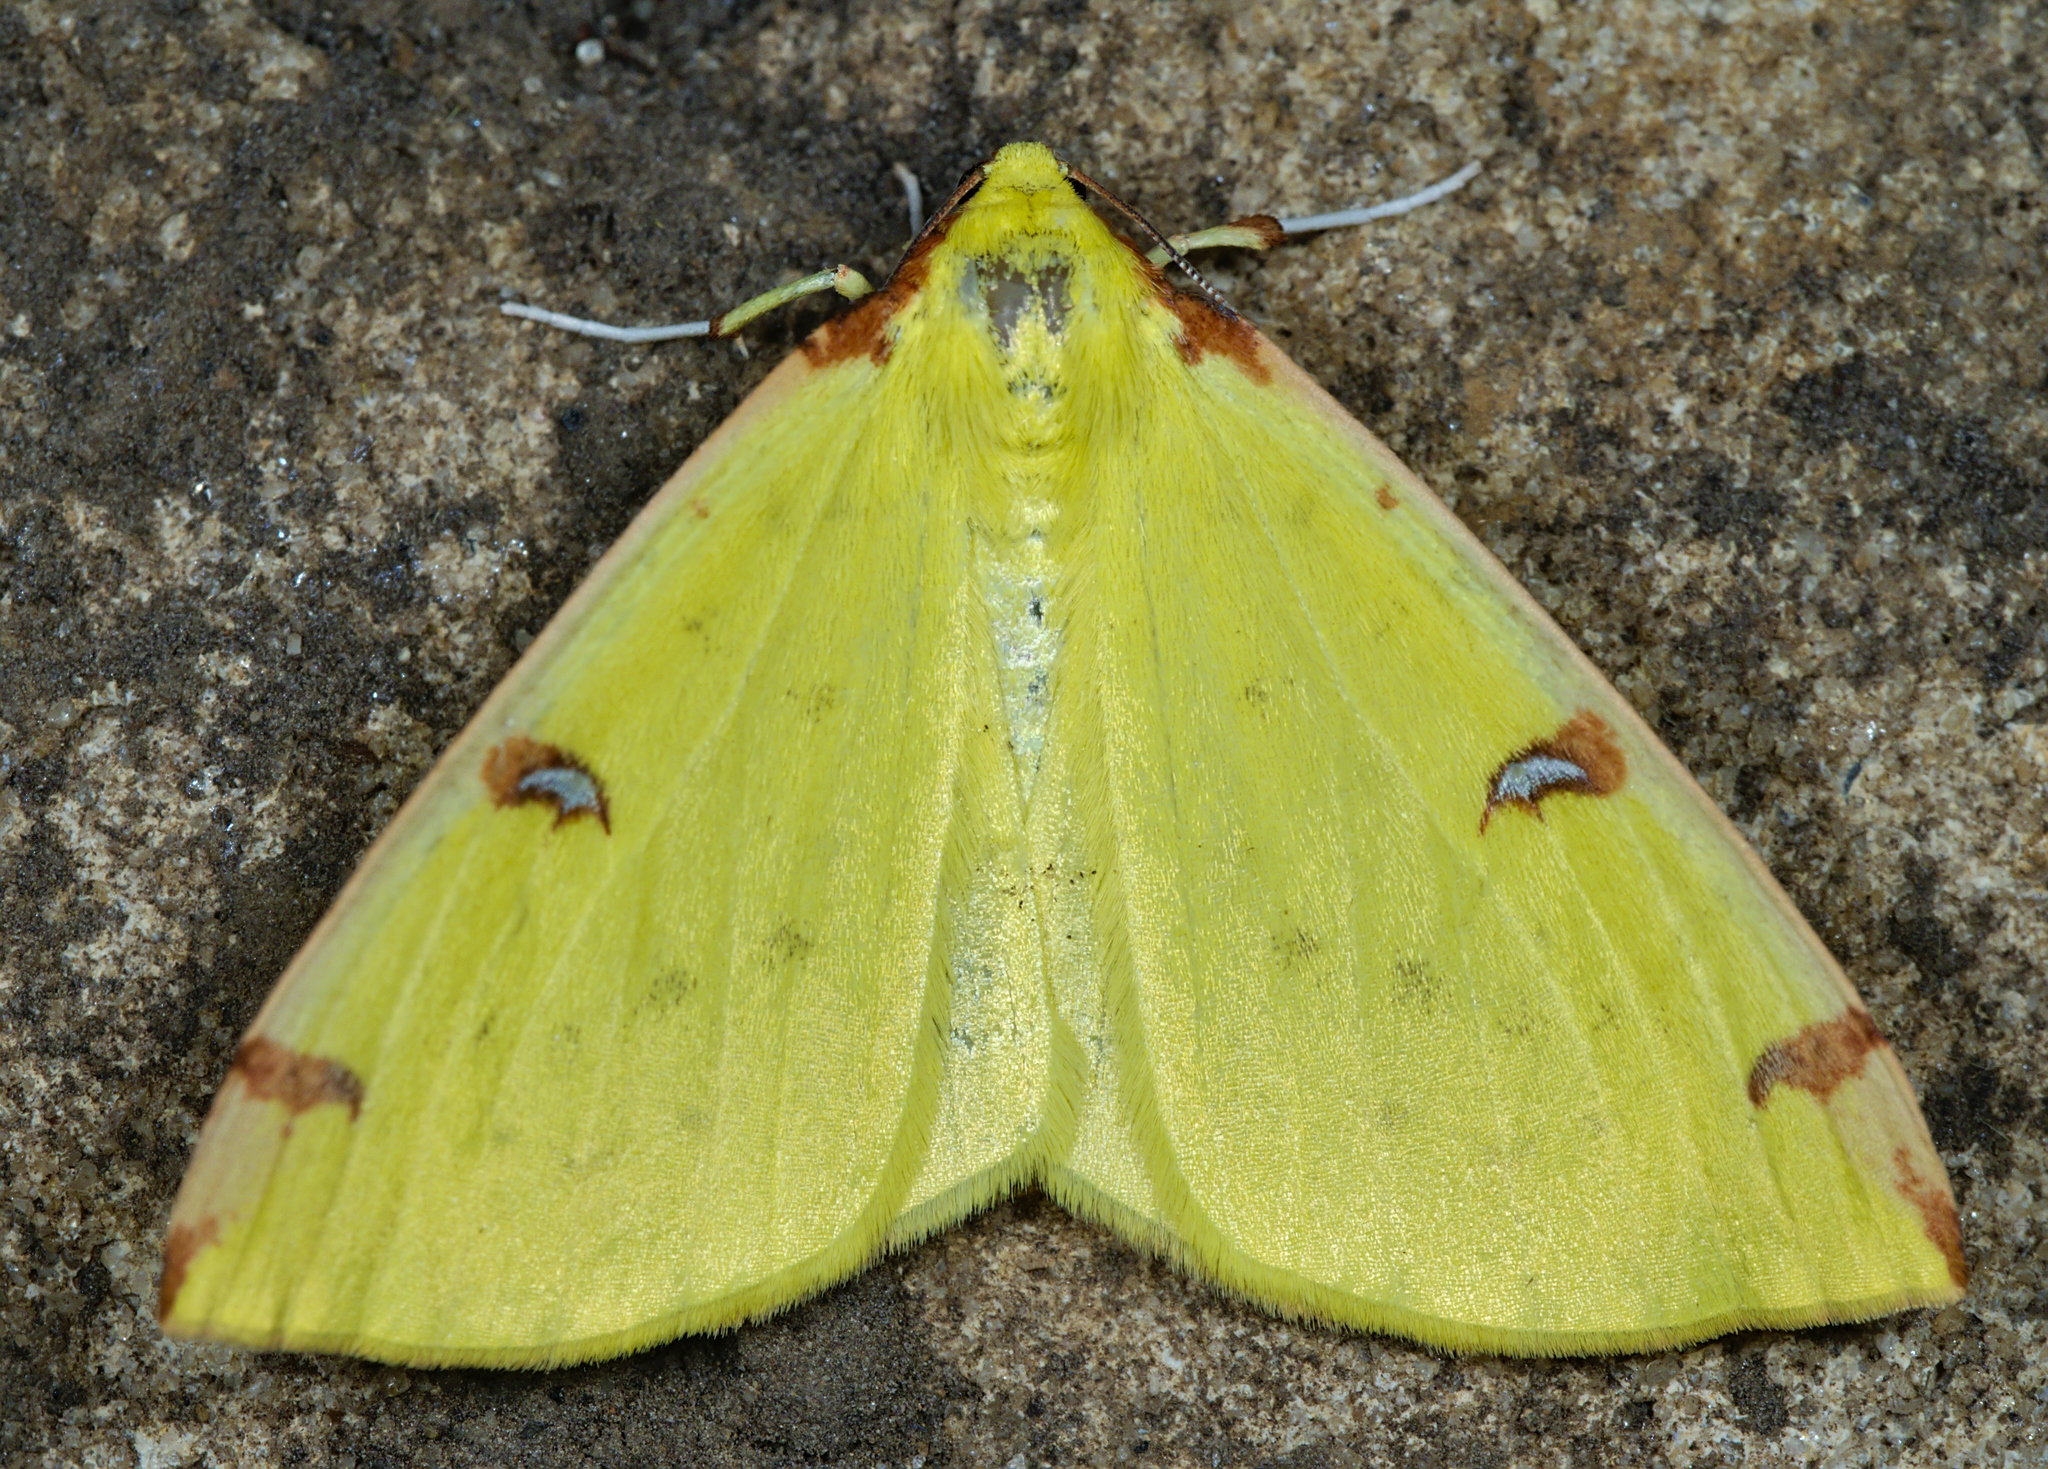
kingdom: Animalia
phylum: Arthropoda
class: Insecta
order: Lepidoptera
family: Geometridae
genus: Opisthograptis
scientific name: Opisthograptis luteolata
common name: Brimstone moth
